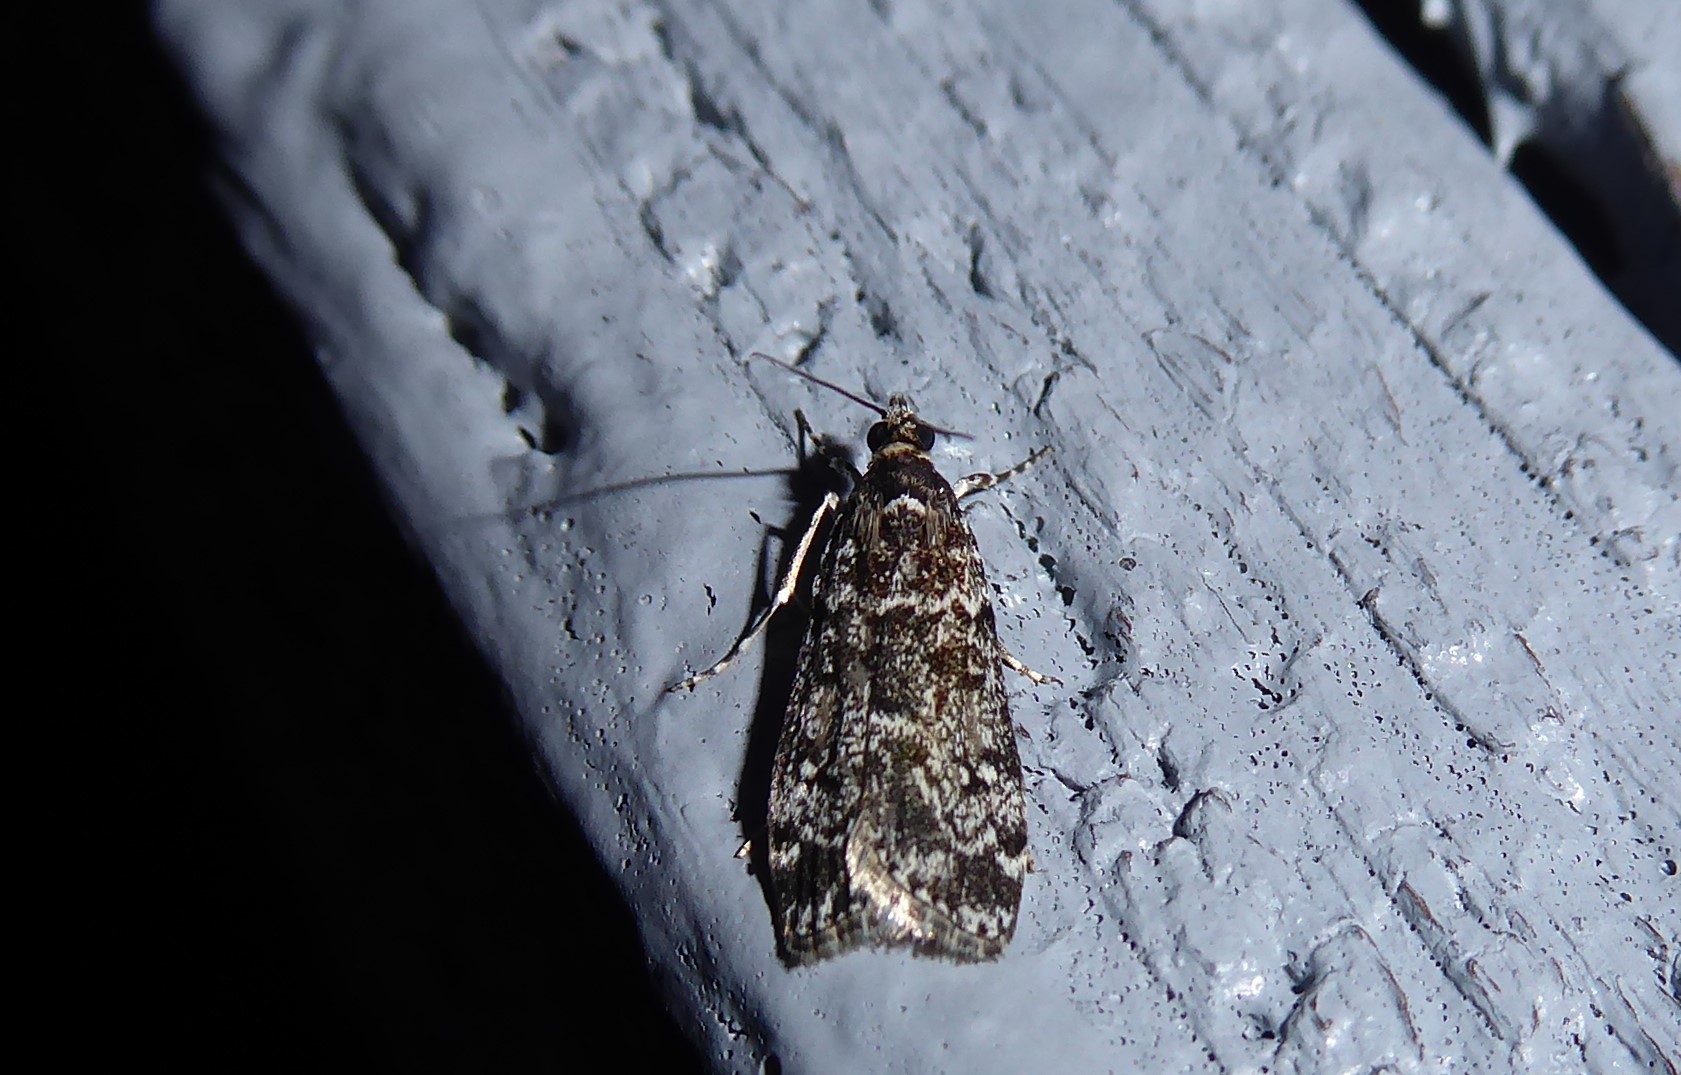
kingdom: Animalia
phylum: Arthropoda
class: Insecta
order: Lepidoptera
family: Crambidae
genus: Eudonia
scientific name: Eudonia philerga
